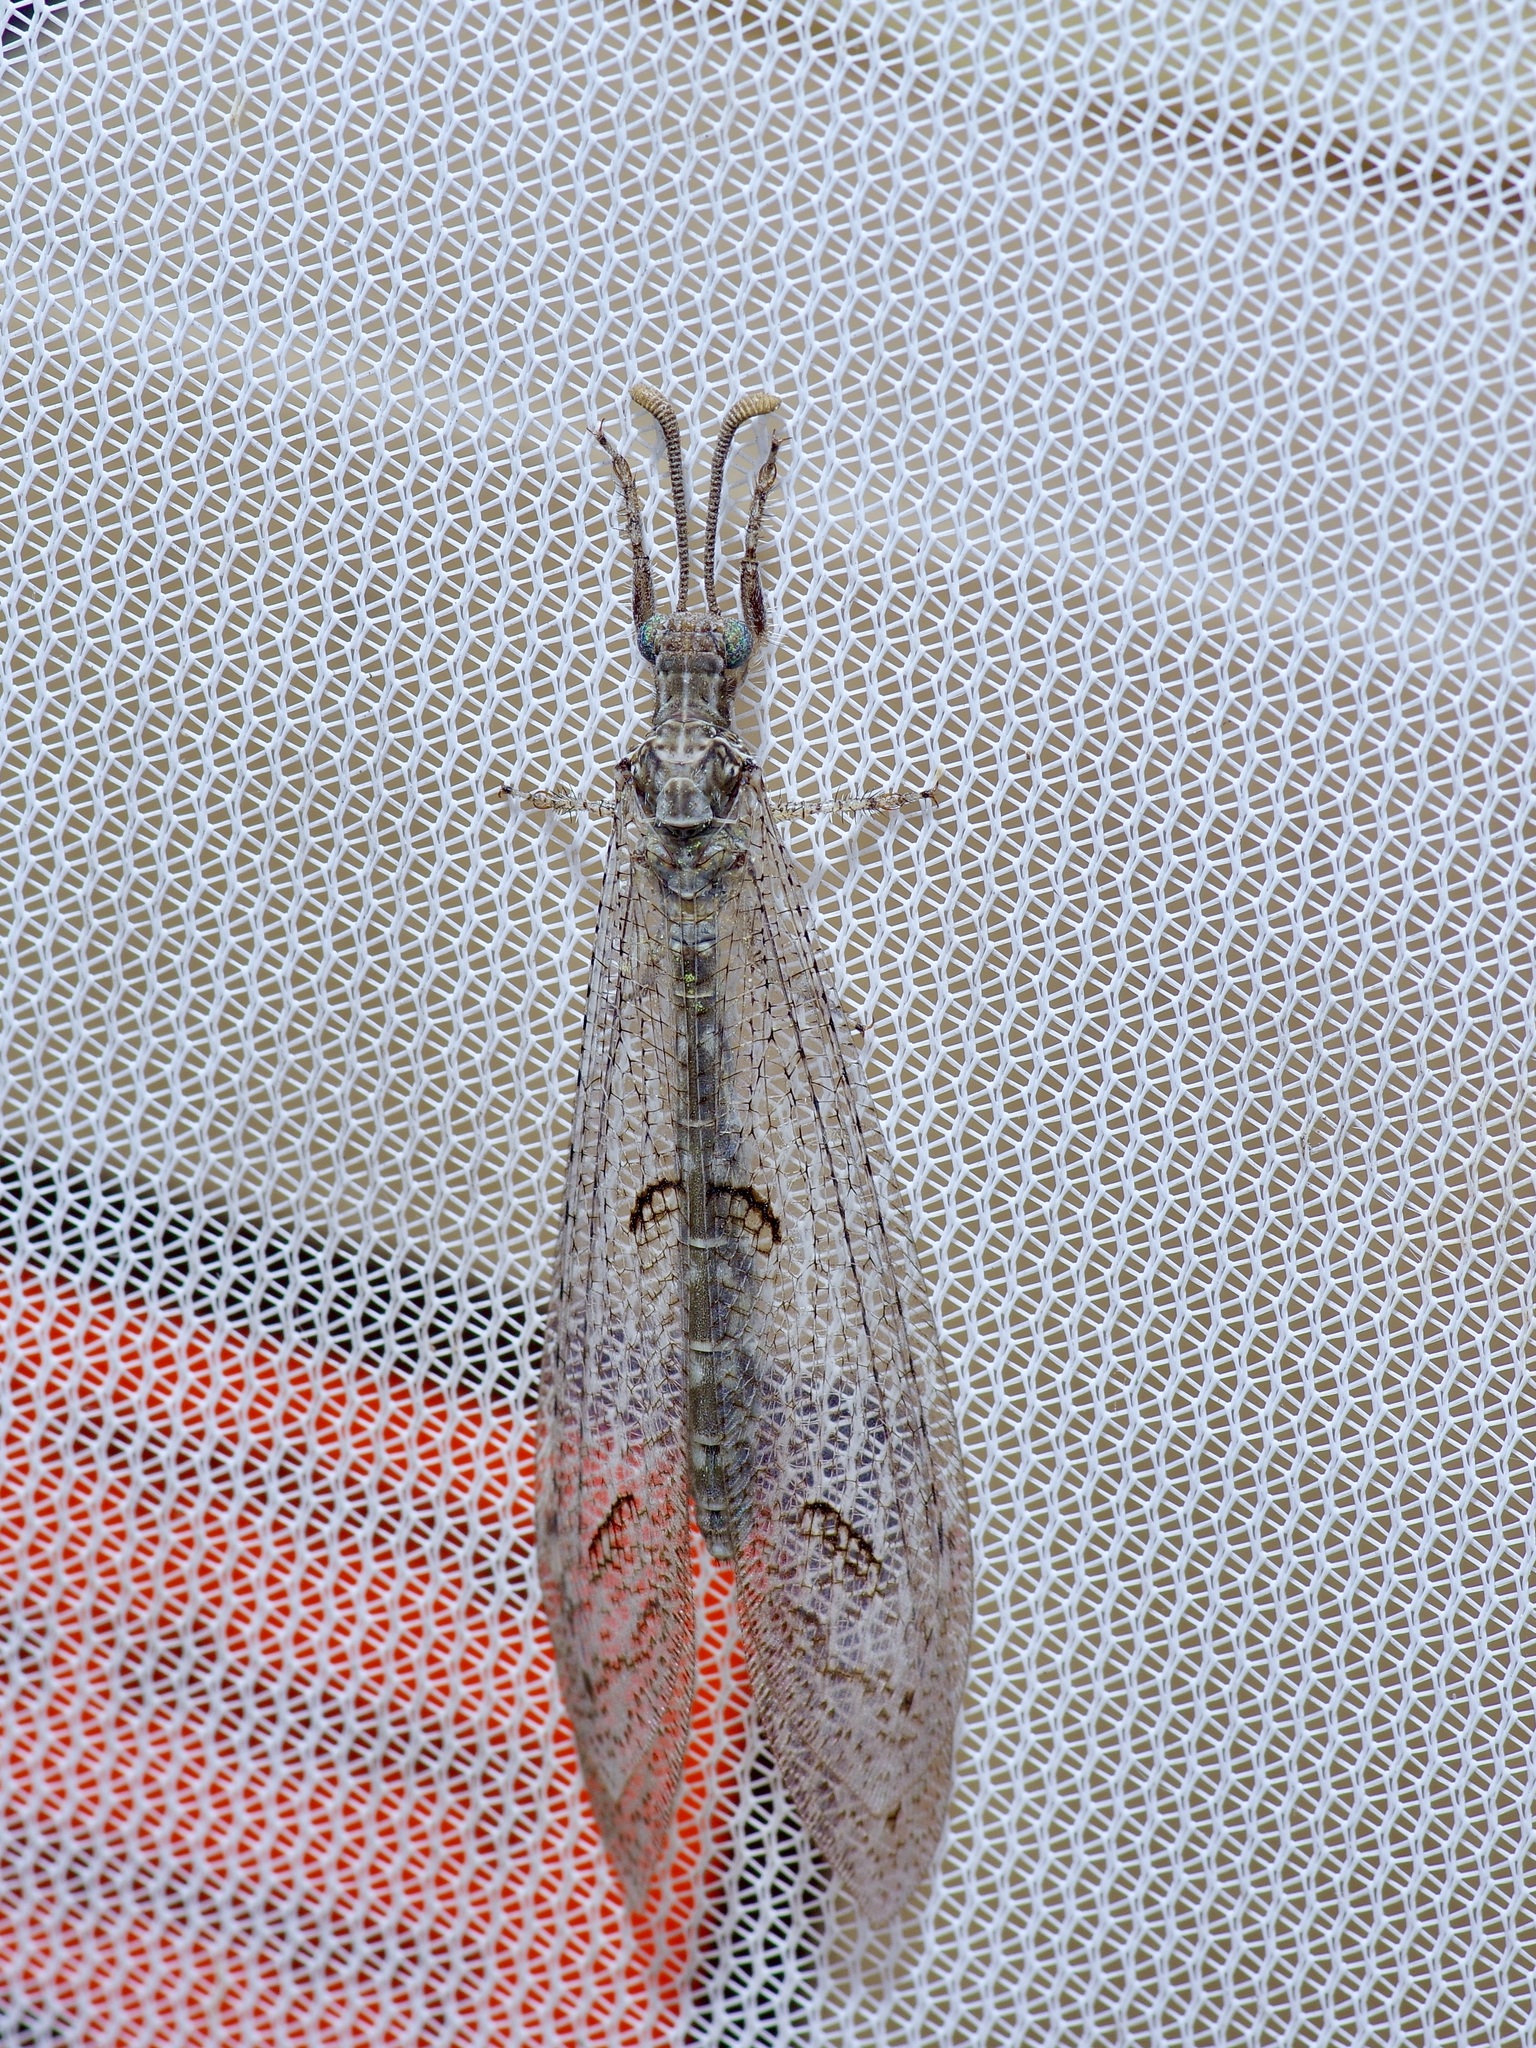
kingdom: Animalia
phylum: Arthropoda
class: Insecta
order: Neuroptera
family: Myrmeleontidae
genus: Euptilon
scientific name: Euptilon ornatum
